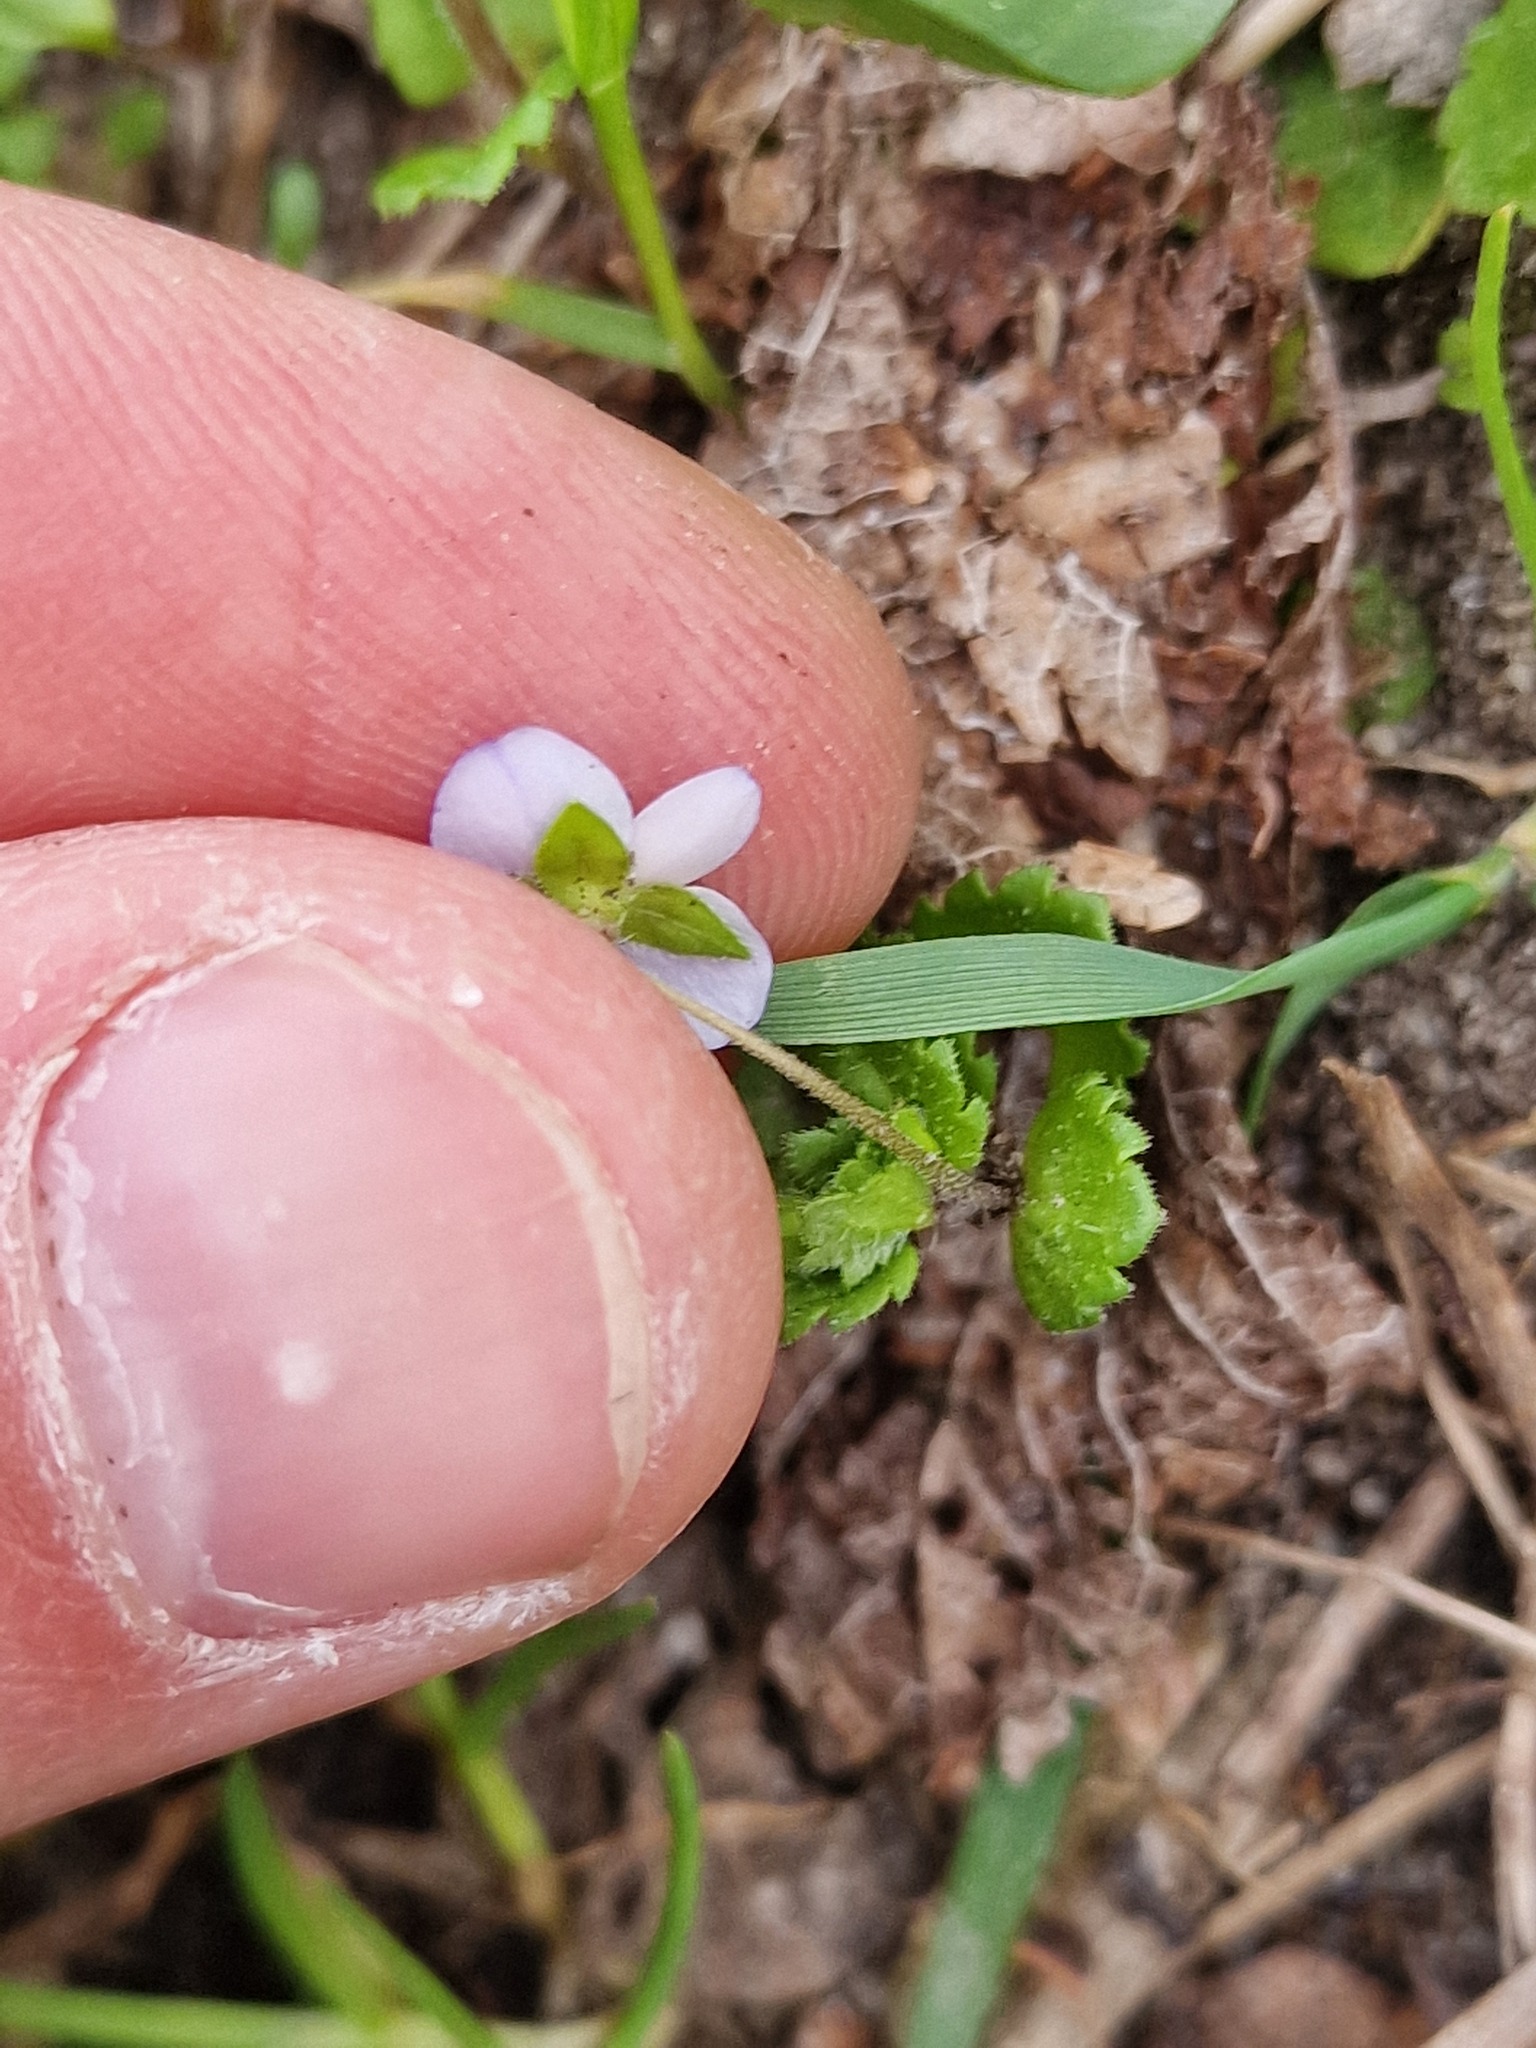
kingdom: Plantae
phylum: Tracheophyta
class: Magnoliopsida
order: Lamiales
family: Plantaginaceae
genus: Veronica
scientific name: Veronica persica
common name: Common field-speedwell
